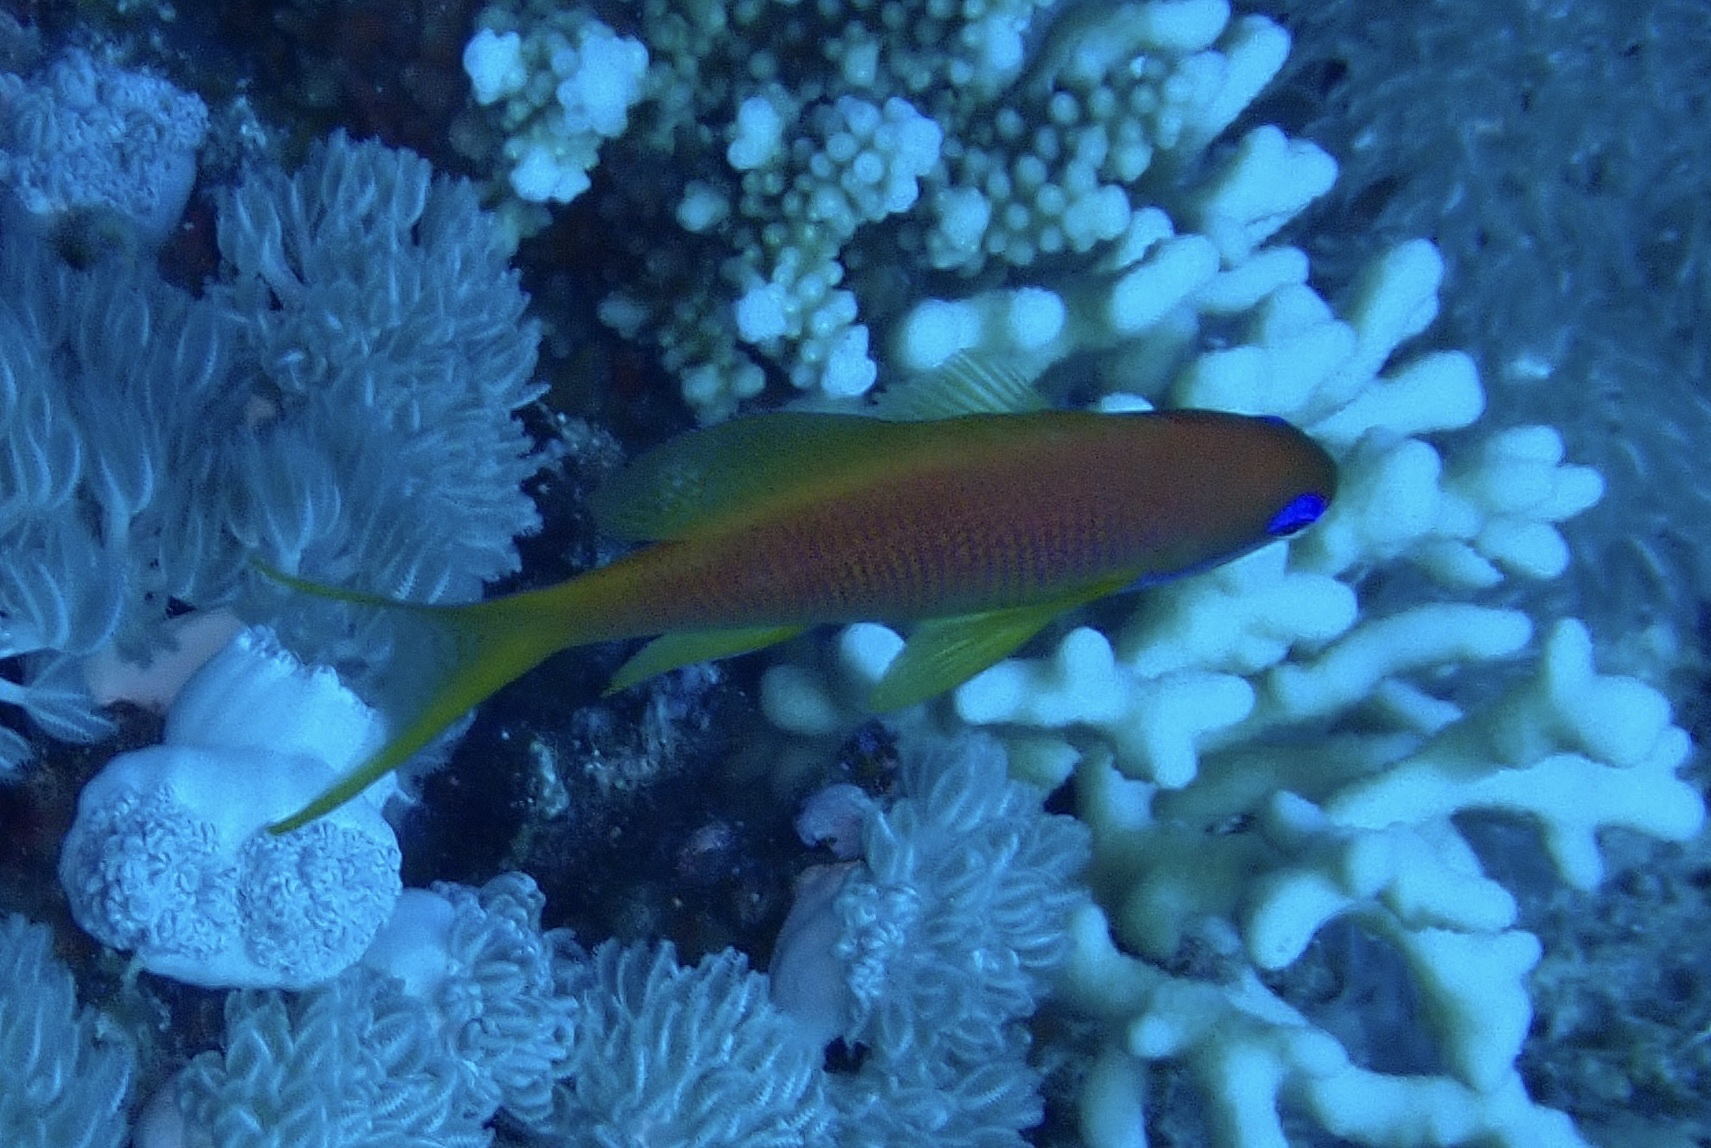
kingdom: Animalia
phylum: Chordata
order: Perciformes
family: Serranidae
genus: Pseudanthias
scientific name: Pseudanthias squamipinnis
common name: Scalefin anthias
